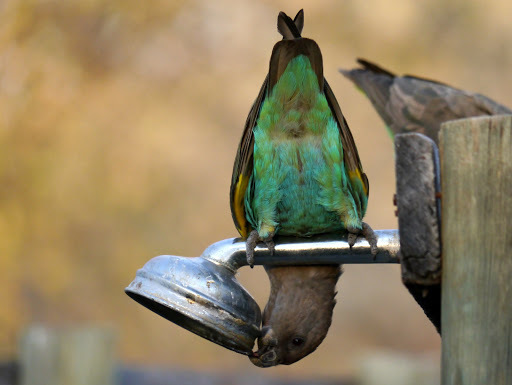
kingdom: Animalia
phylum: Chordata
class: Aves
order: Psittaciformes
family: Psittacidae
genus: Poicephalus
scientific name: Poicephalus meyeri
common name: Meyer's parrot
